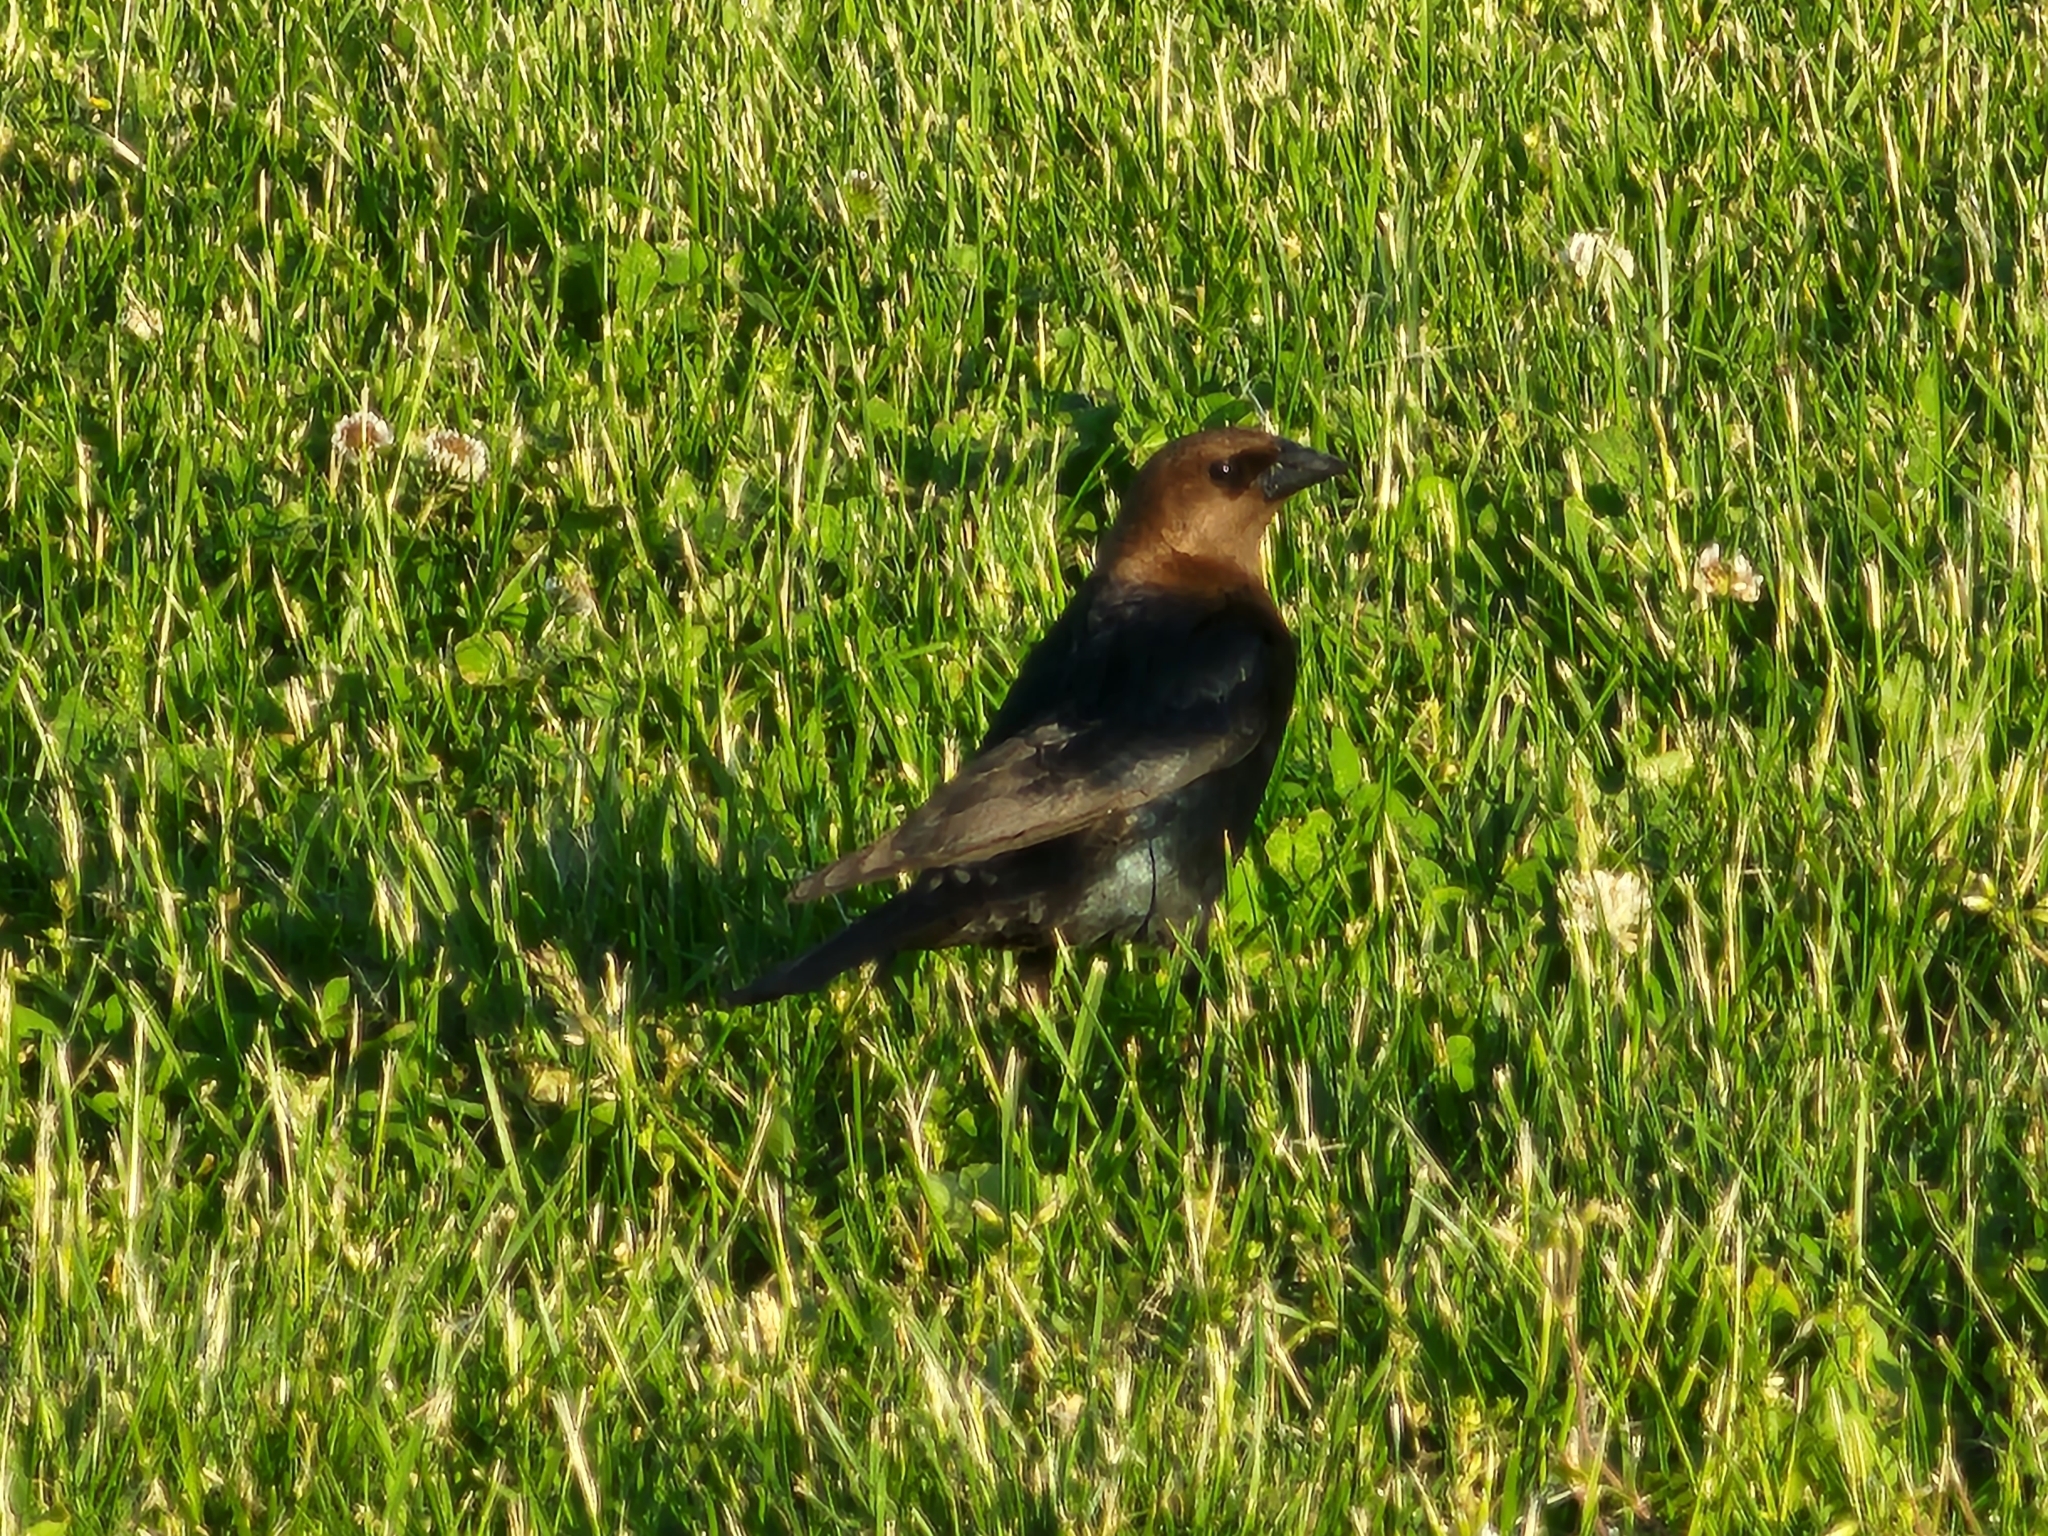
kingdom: Animalia
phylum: Chordata
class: Aves
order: Passeriformes
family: Icteridae
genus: Molothrus
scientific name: Molothrus ater
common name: Brown-headed cowbird
